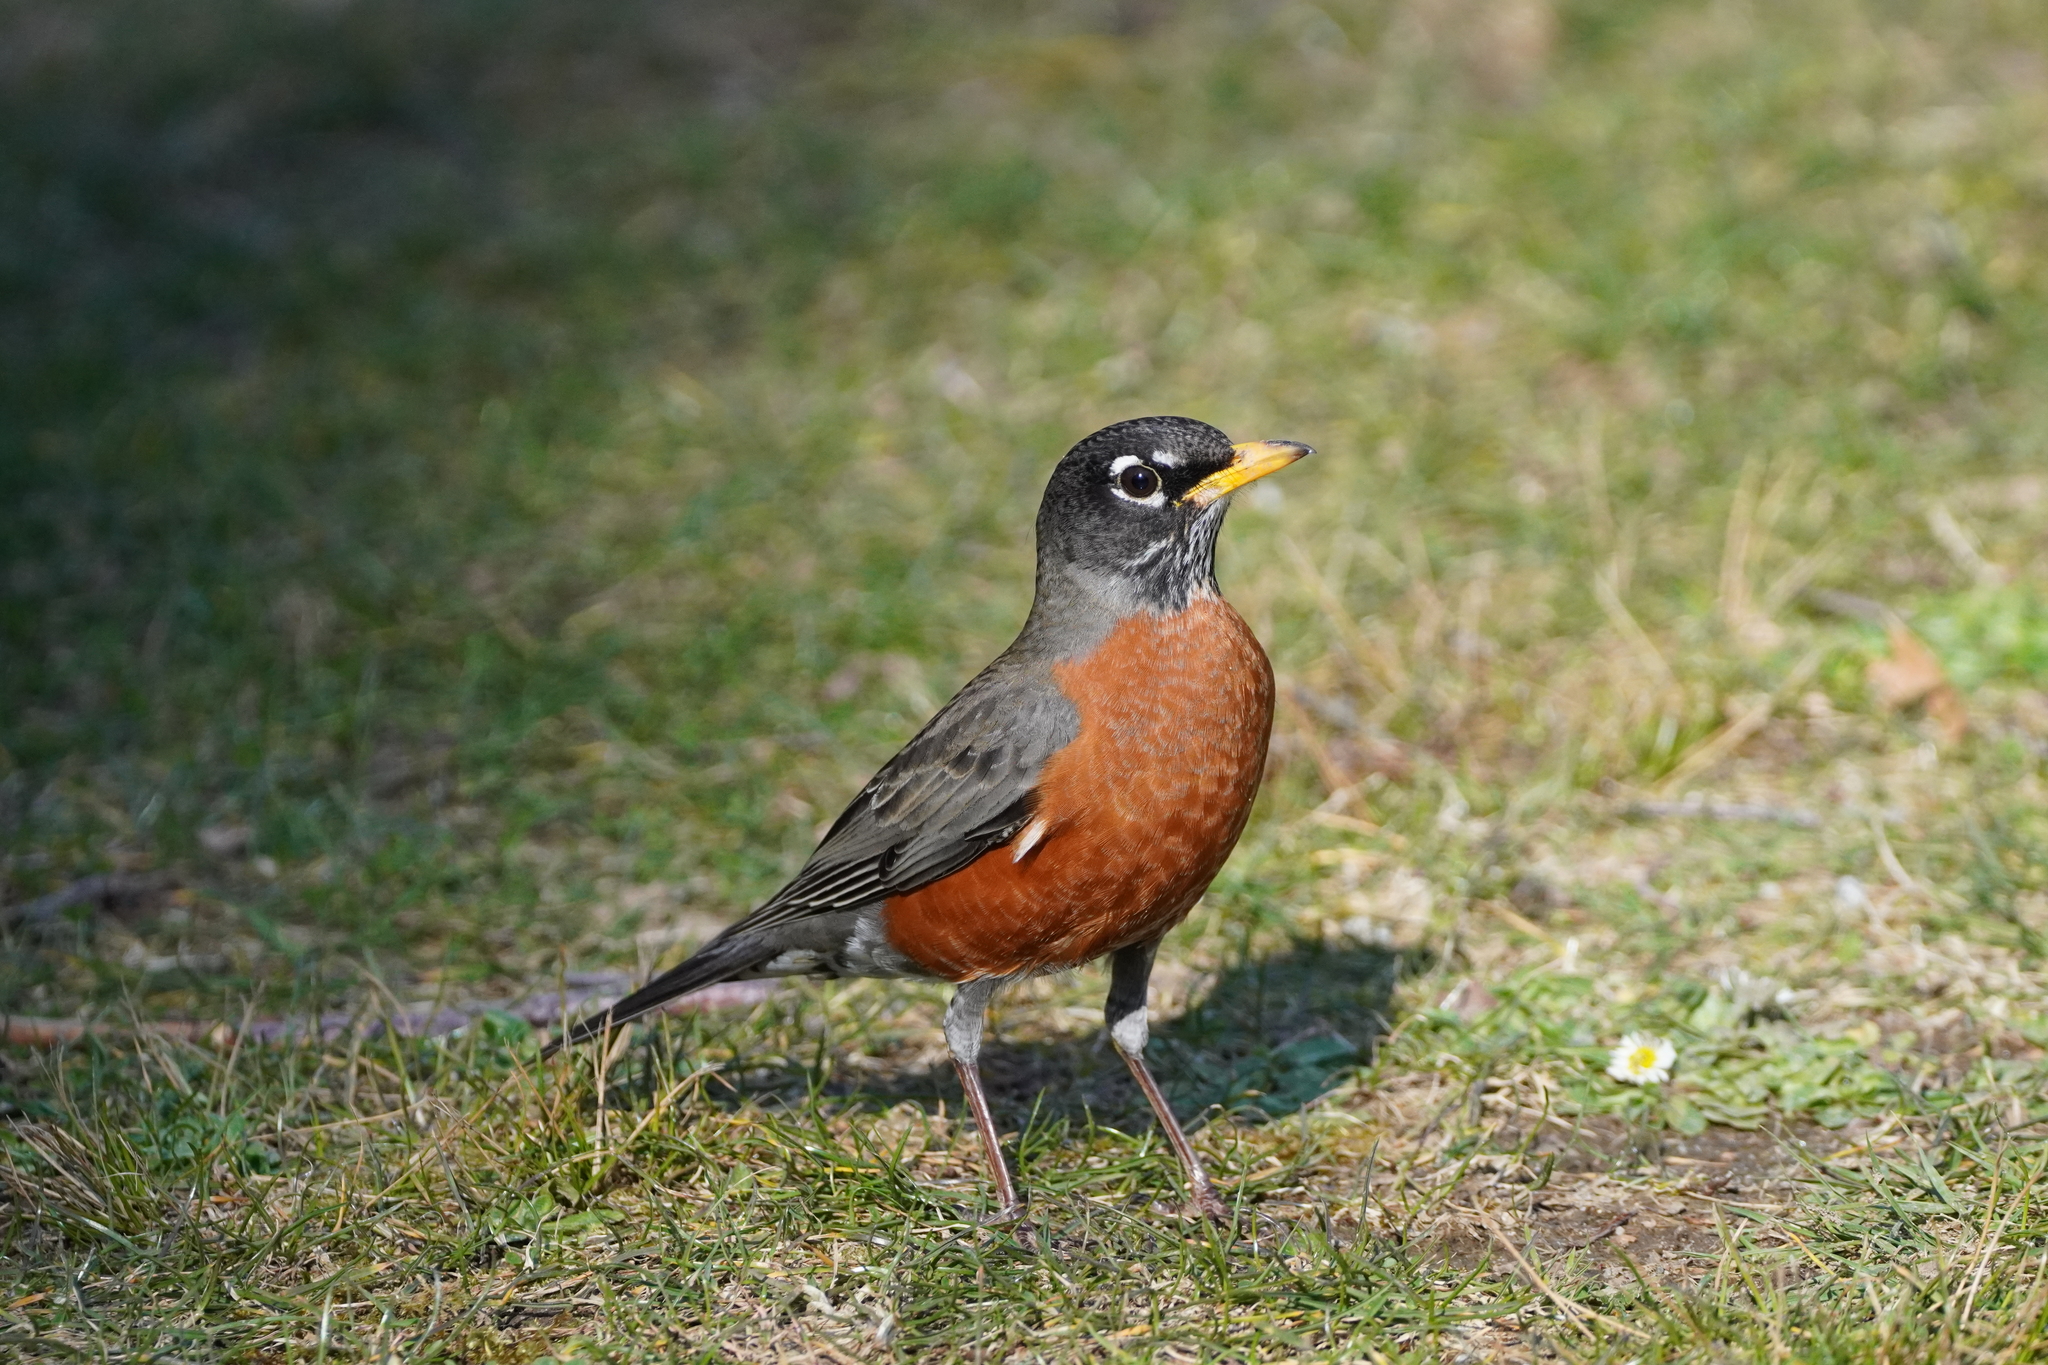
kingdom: Animalia
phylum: Chordata
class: Aves
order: Passeriformes
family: Turdidae
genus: Turdus
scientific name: Turdus migratorius
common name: American robin
